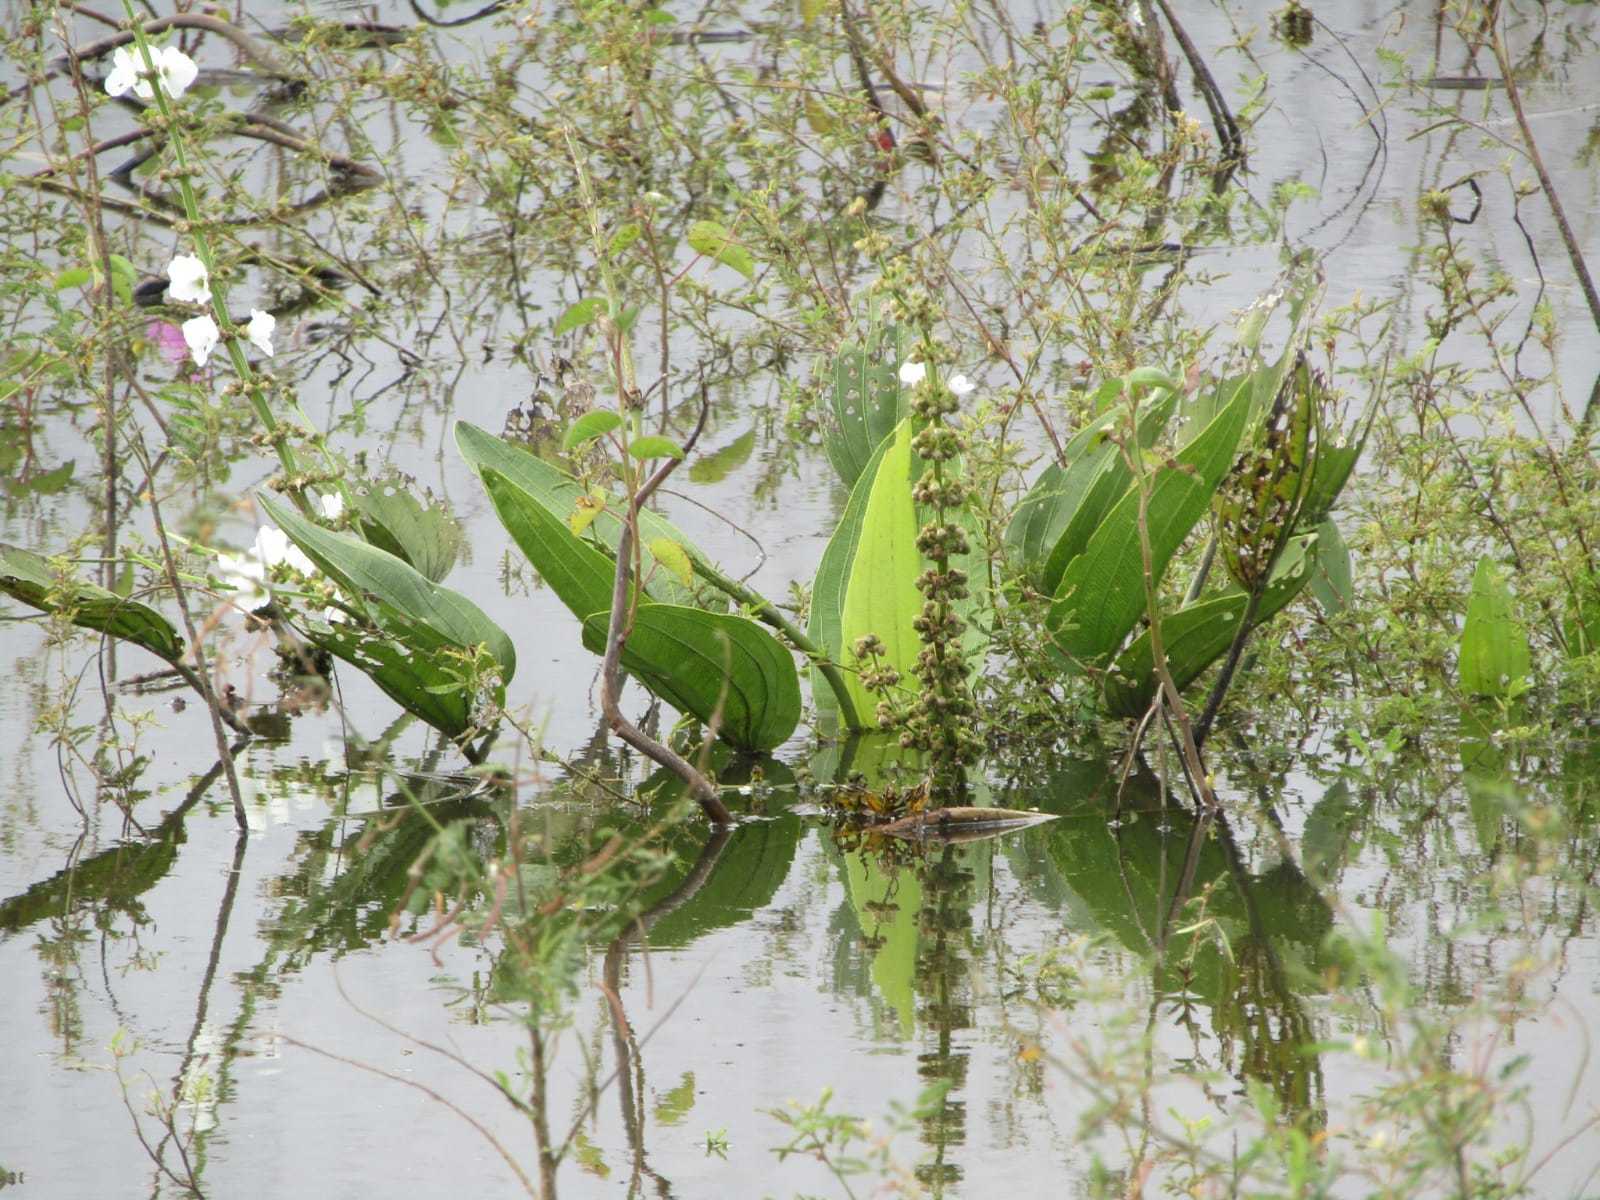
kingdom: Plantae
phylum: Tracheophyta
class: Liliopsida
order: Alismatales
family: Alismataceae
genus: Aquarius
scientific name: Aquarius pubescens
